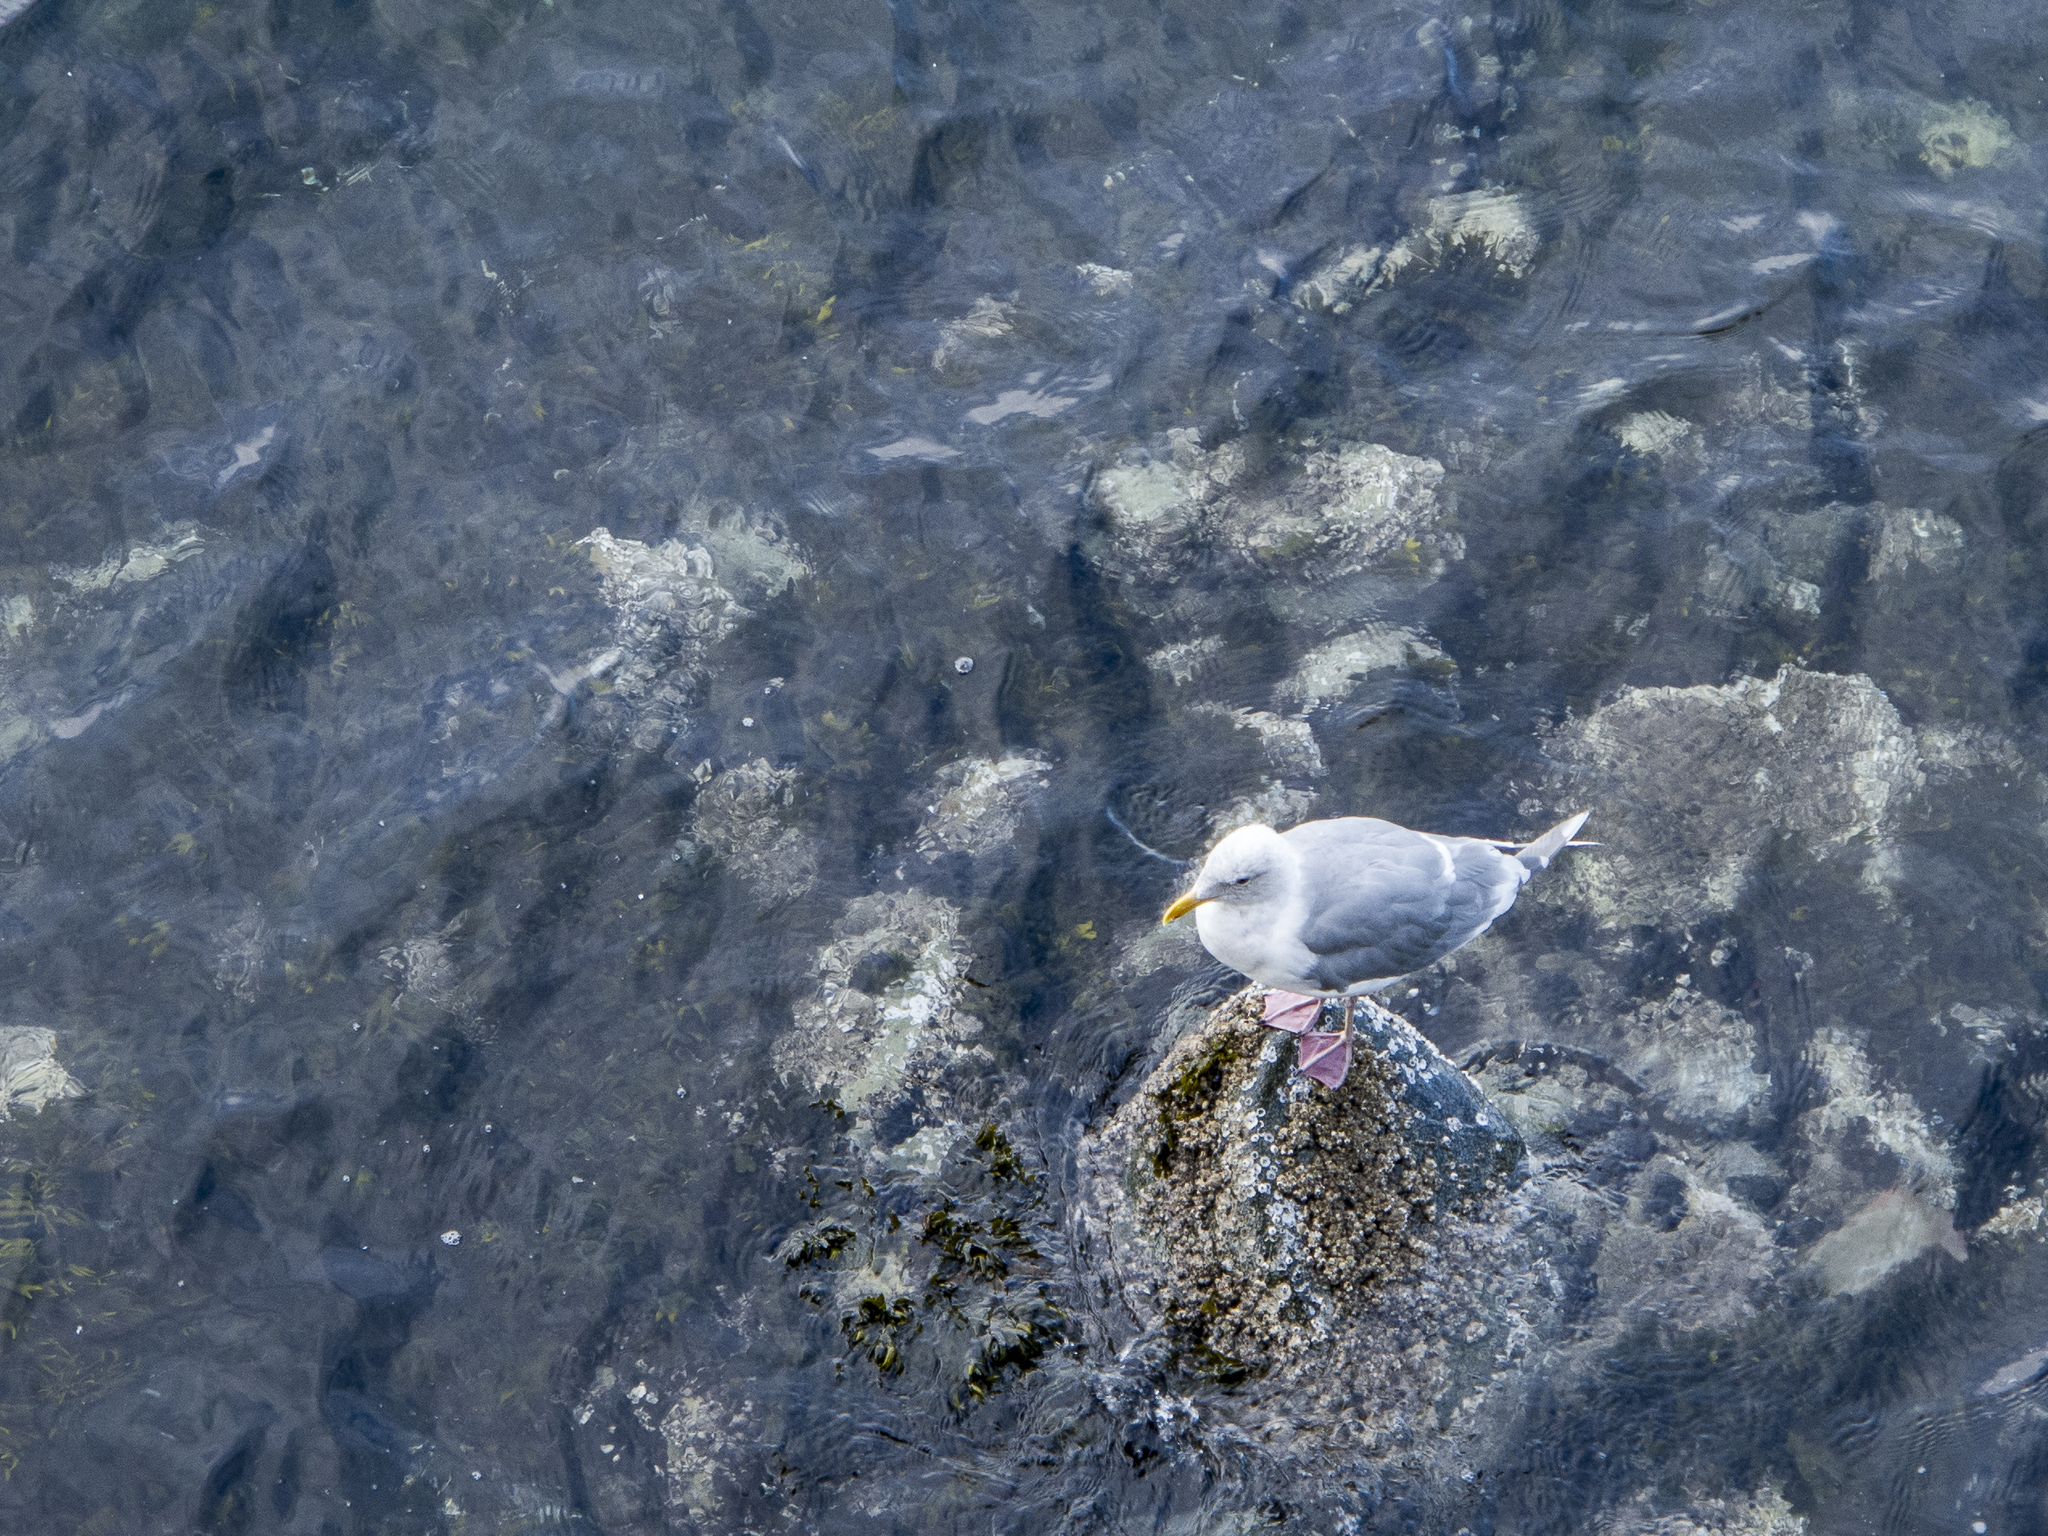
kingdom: Animalia
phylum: Chordata
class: Aves
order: Charadriiformes
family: Laridae
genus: Larus
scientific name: Larus glaucescens
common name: Glaucous-winged gull
